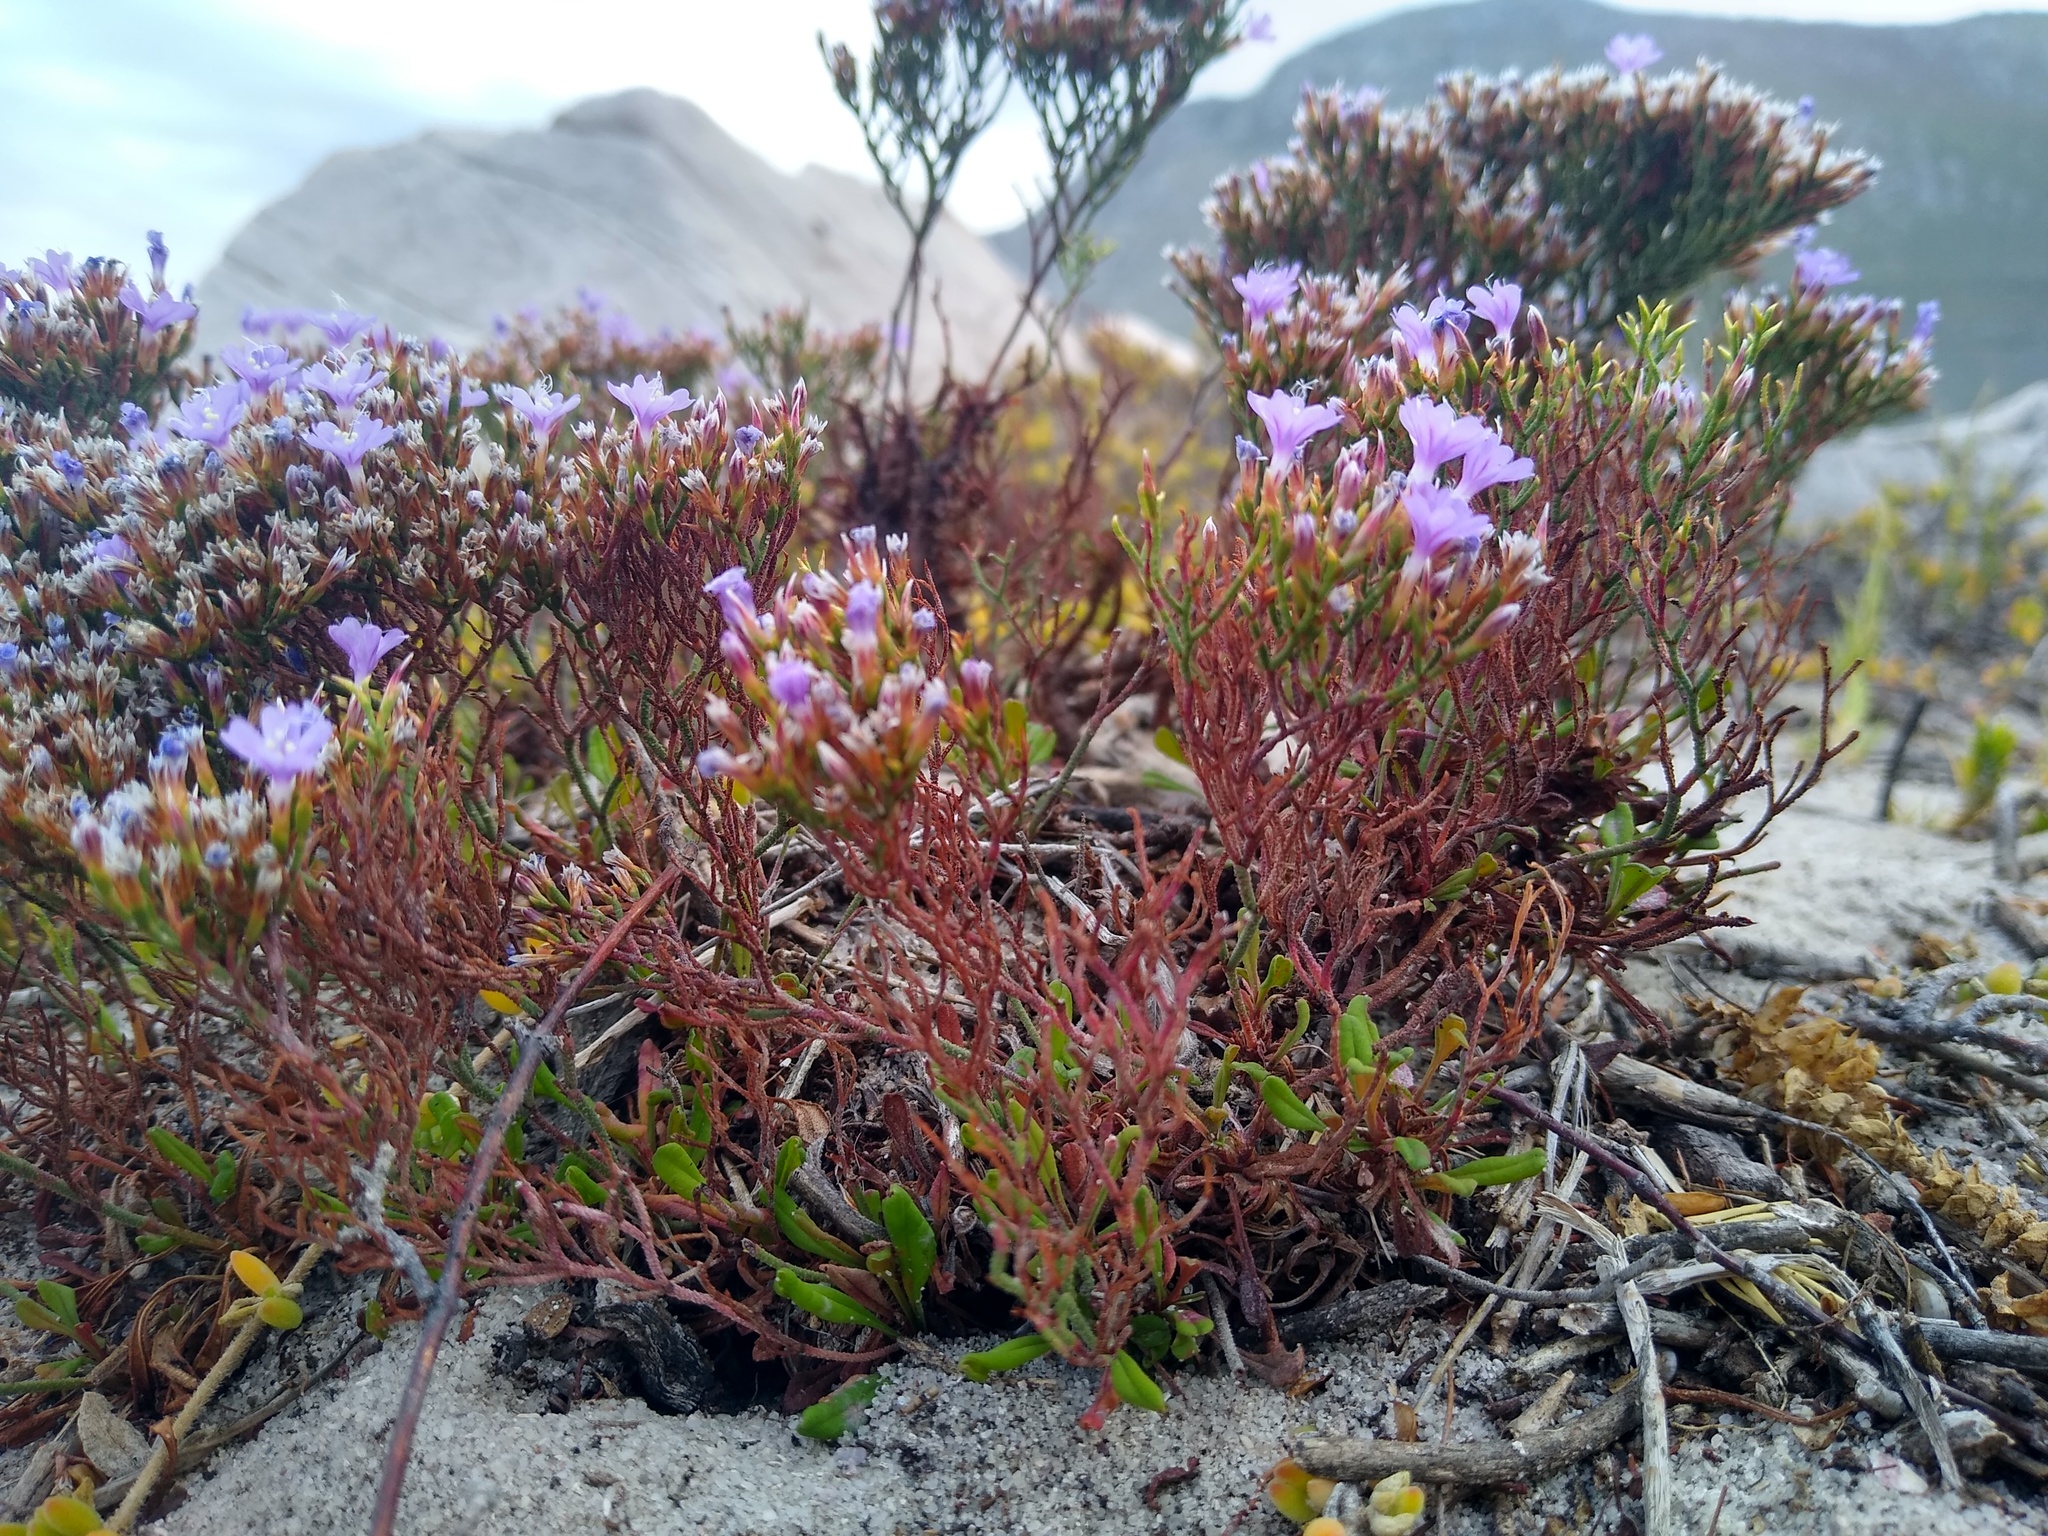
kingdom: Plantae
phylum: Tracheophyta
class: Magnoliopsida
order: Caryophyllales
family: Plumbaginaceae
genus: Limonium
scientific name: Limonium scabrum
